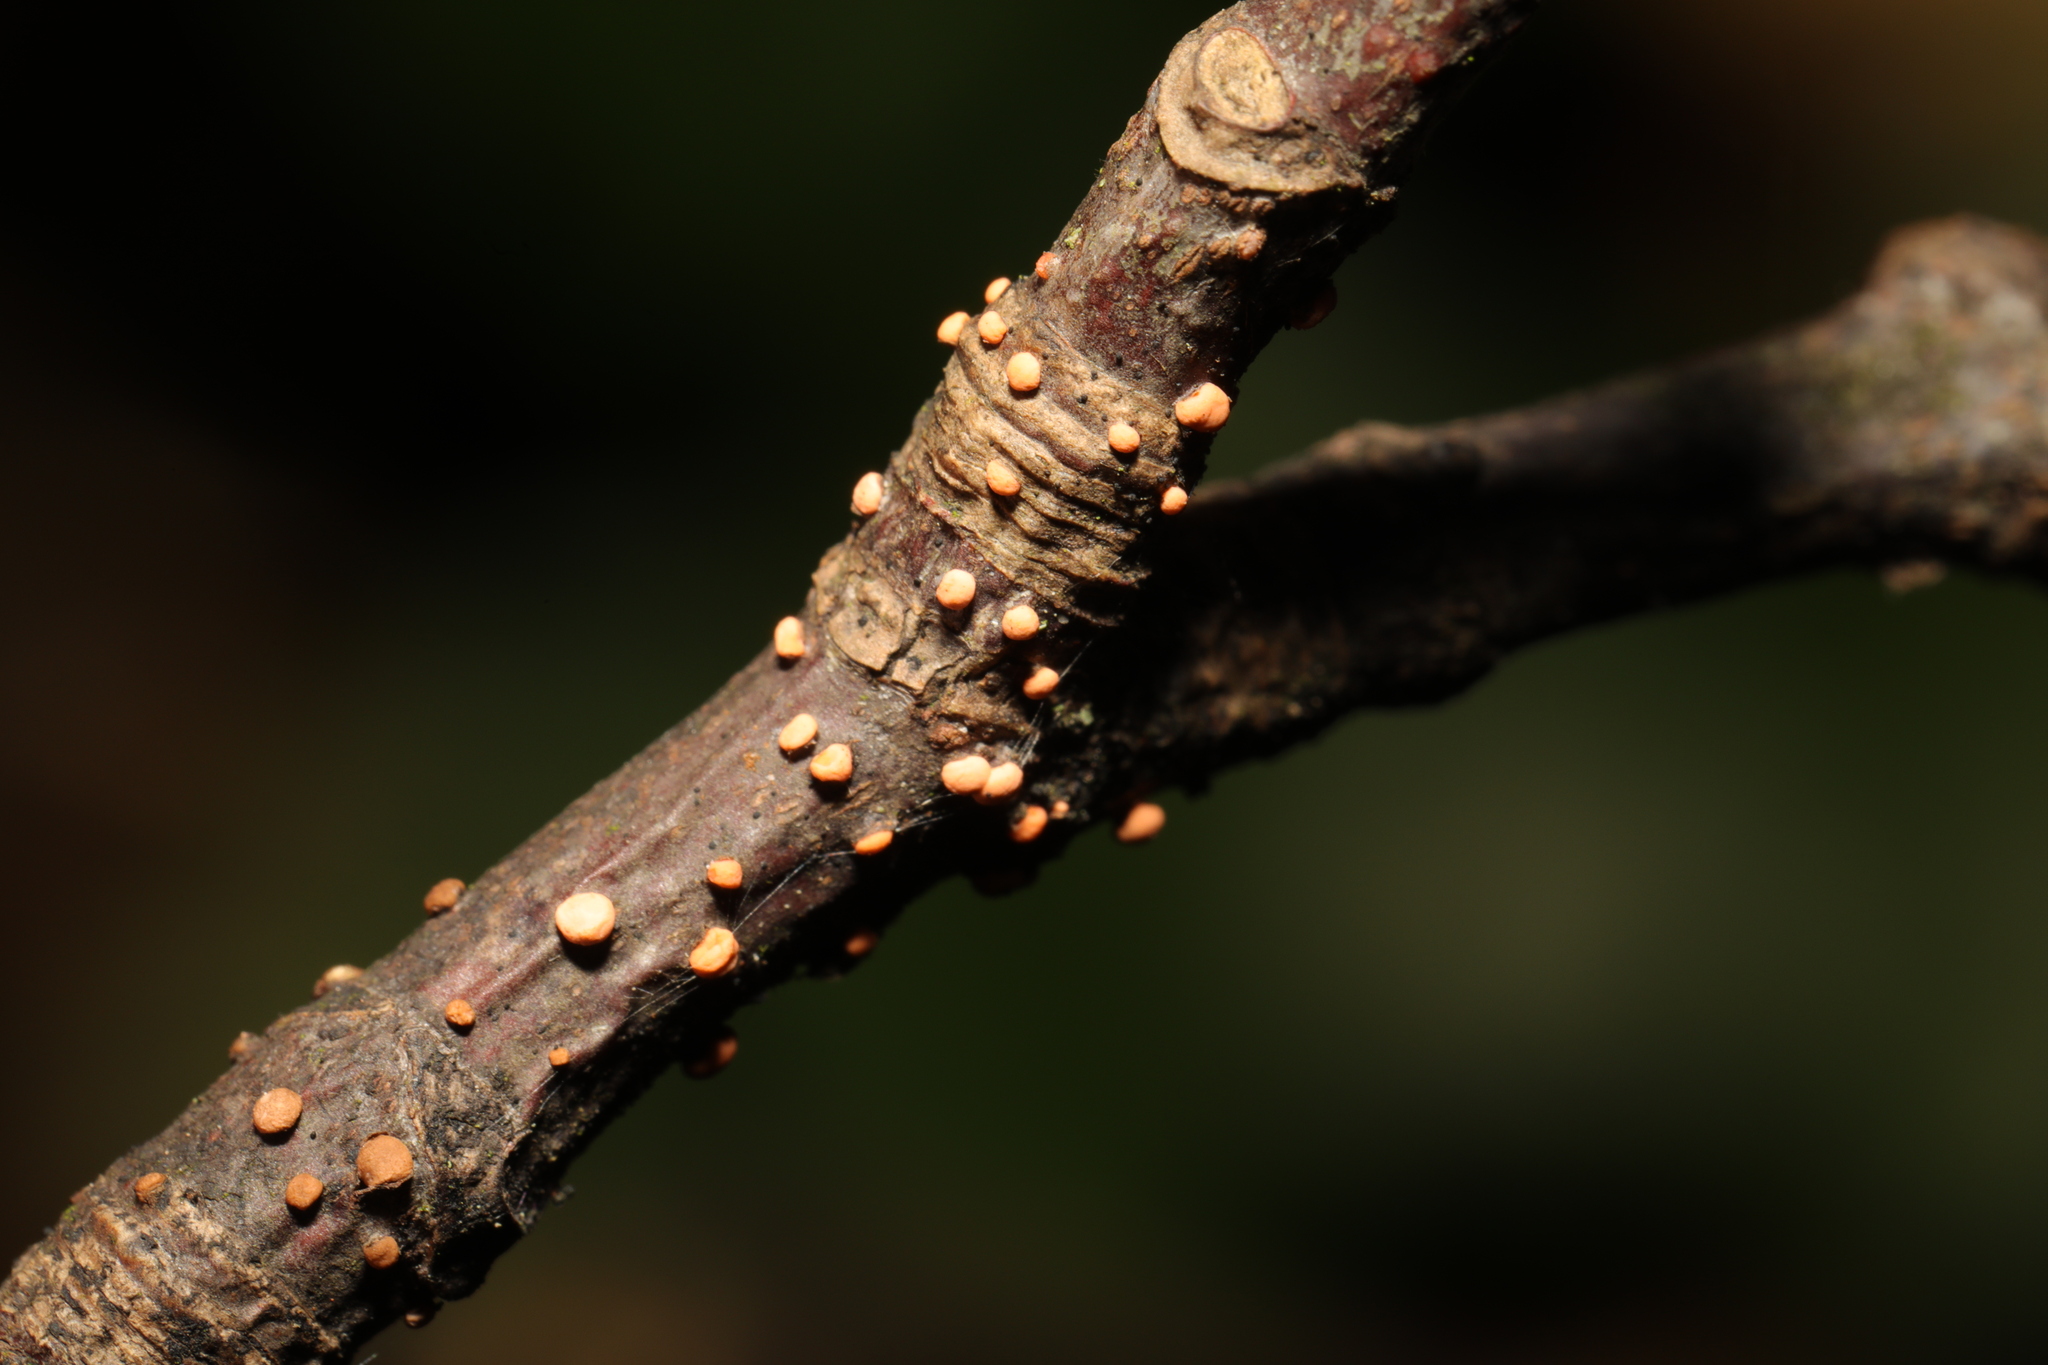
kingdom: Fungi
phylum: Ascomycota
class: Sordariomycetes
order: Hypocreales
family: Nectriaceae
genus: Nectria
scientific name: Nectria cinnabarina
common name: Coral spot
